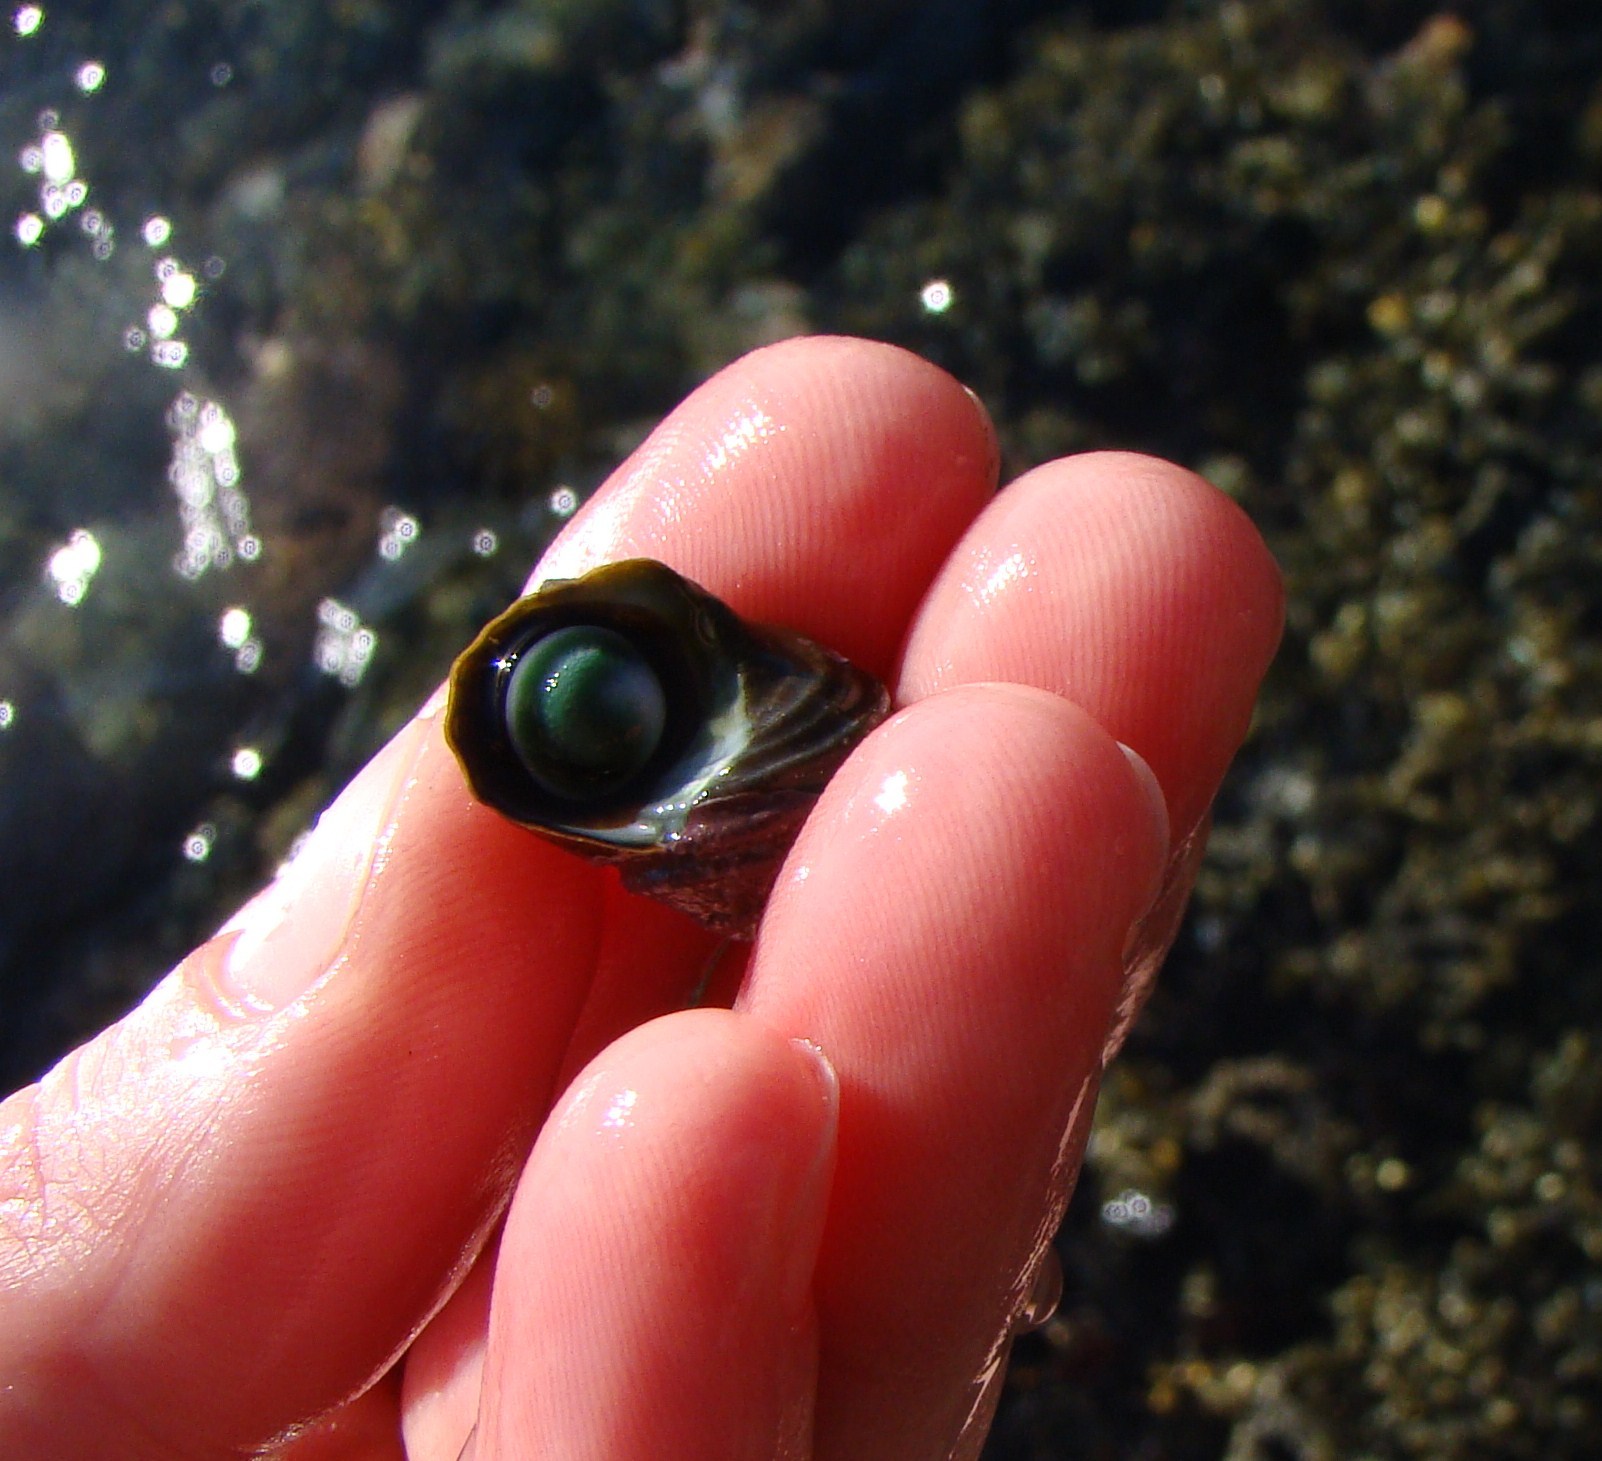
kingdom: Animalia
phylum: Mollusca
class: Gastropoda
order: Trochida
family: Turbinidae
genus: Lunella
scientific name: Lunella smaragda
